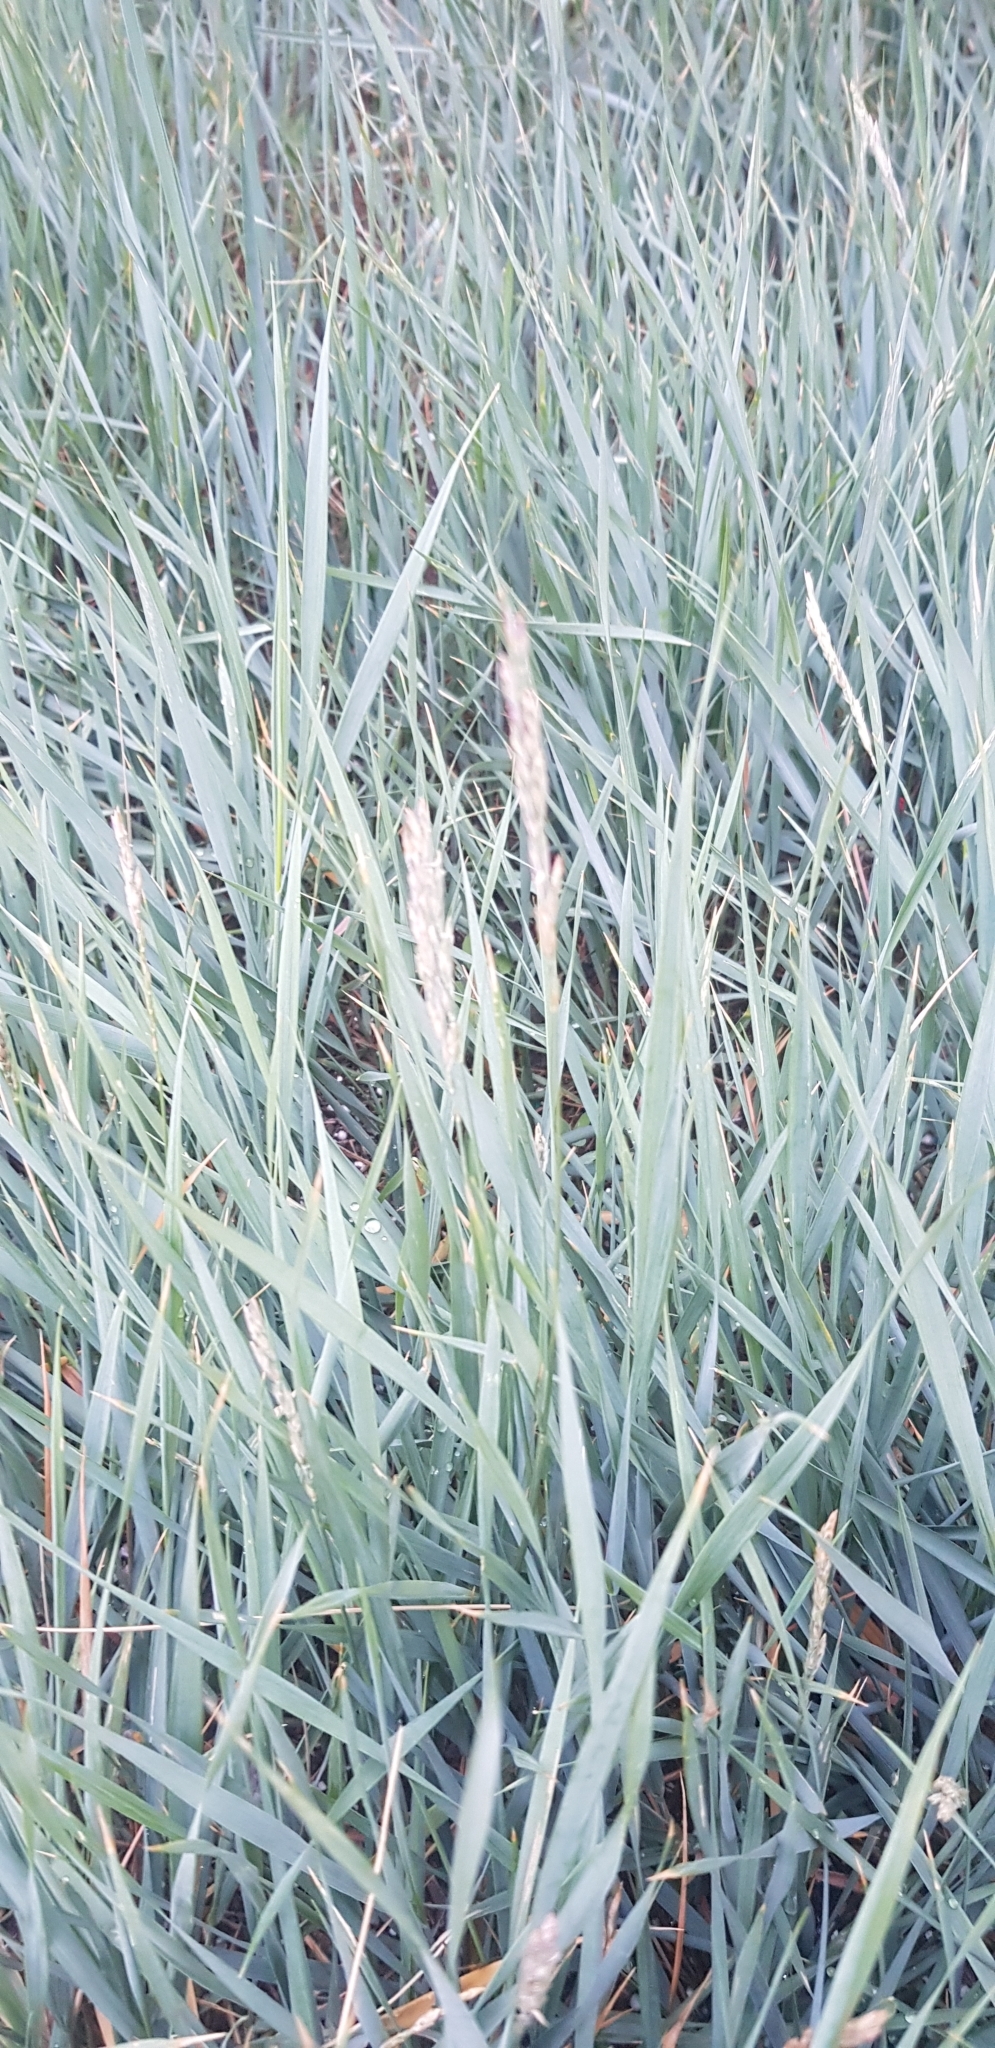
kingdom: Plantae
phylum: Tracheophyta
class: Liliopsida
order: Poales
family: Poaceae
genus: Leymus
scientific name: Leymus chinensis
